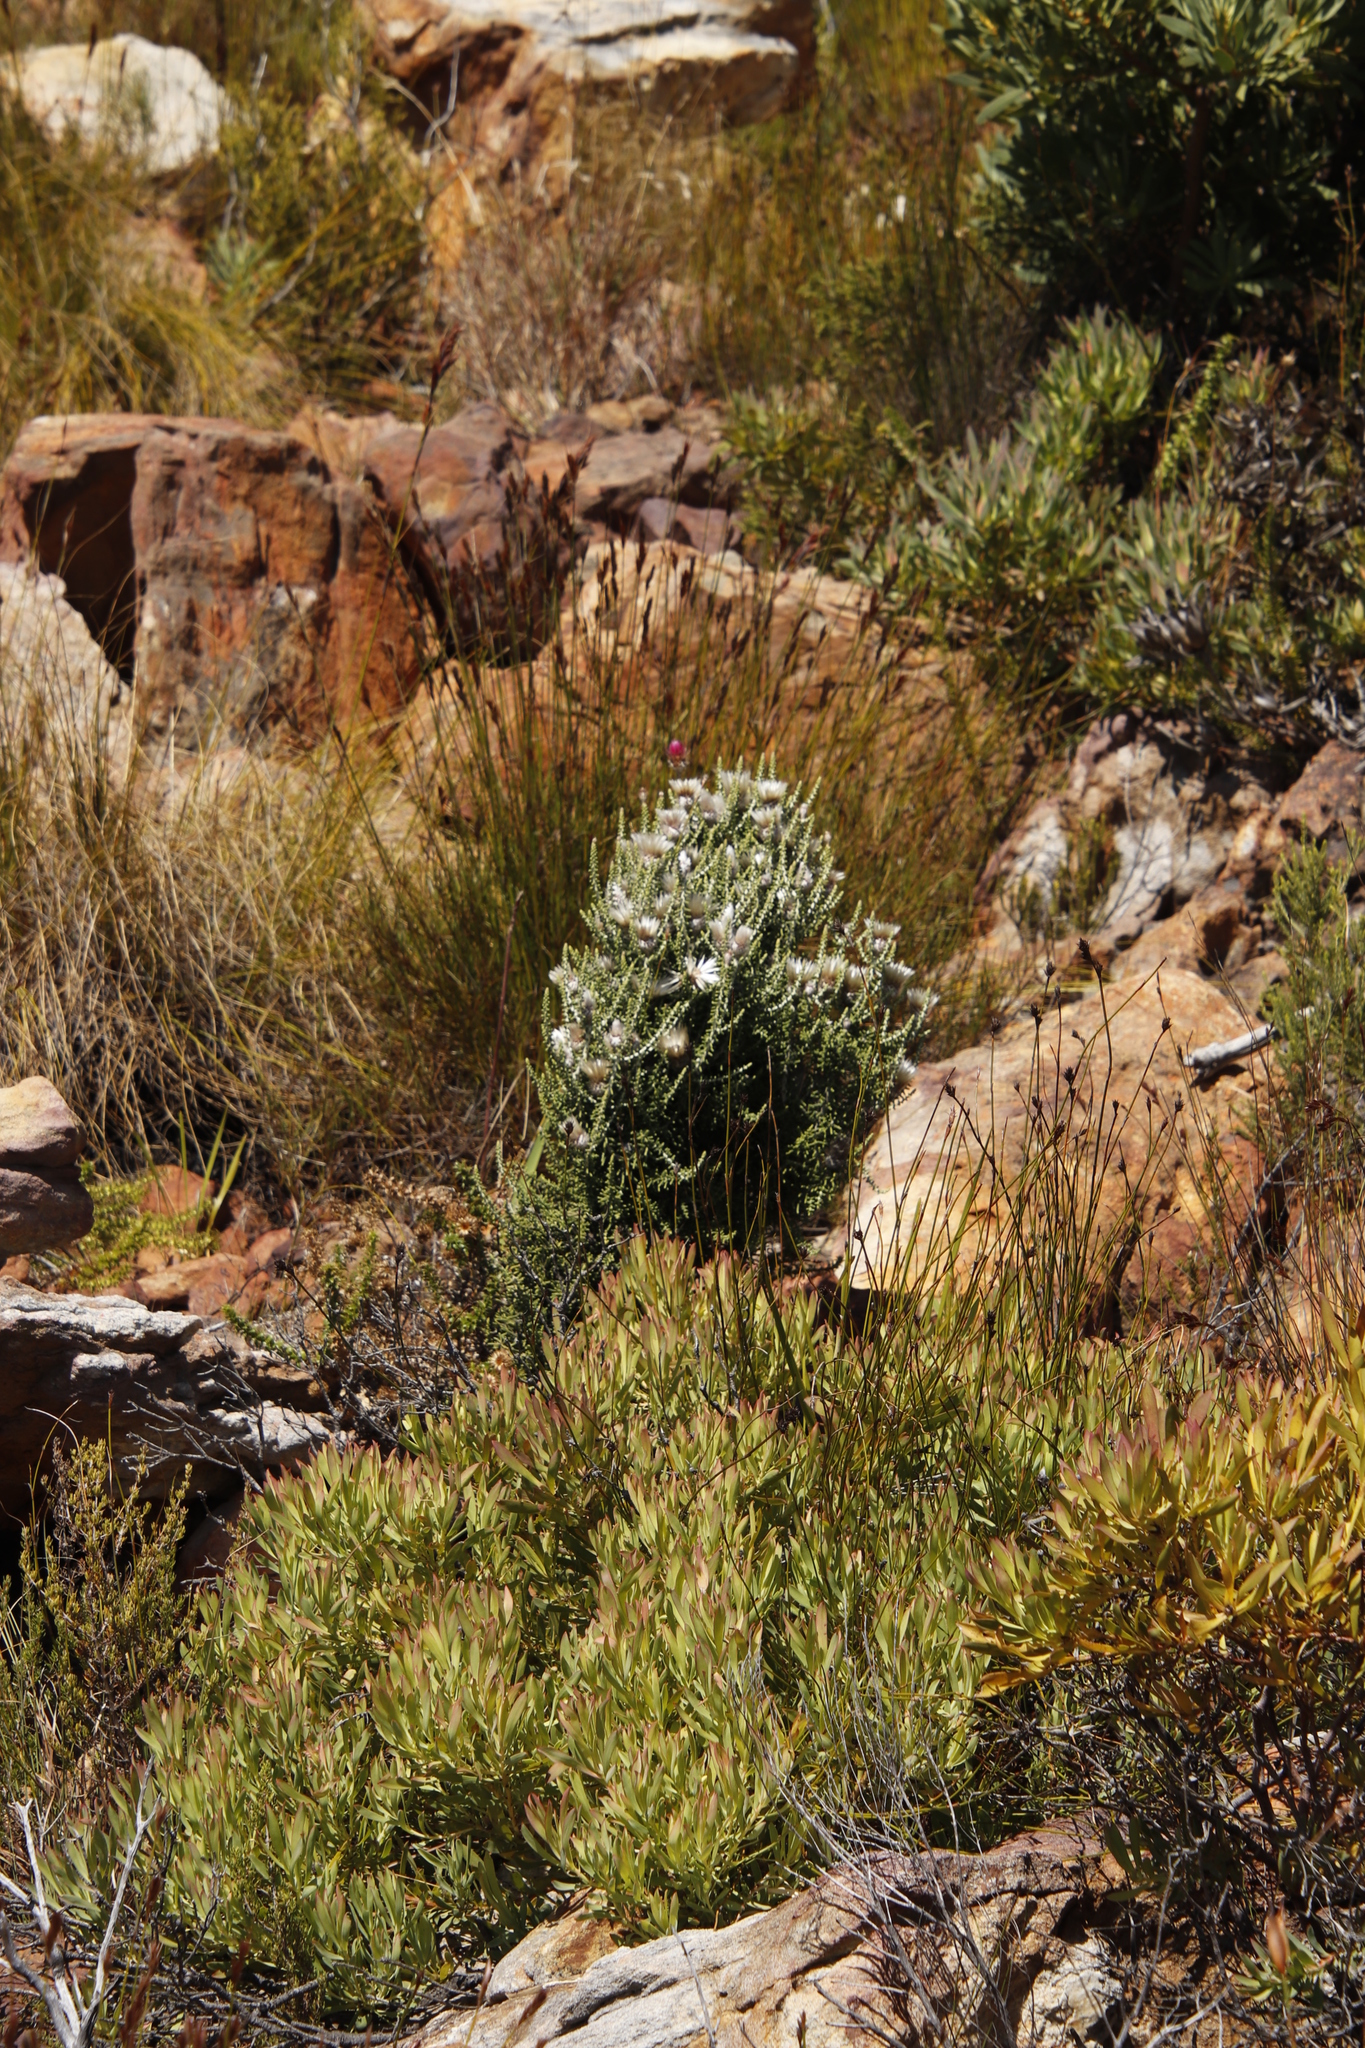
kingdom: Plantae
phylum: Tracheophyta
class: Magnoliopsida
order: Asterales
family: Asteraceae
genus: Phaenocoma
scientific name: Phaenocoma prolifera
